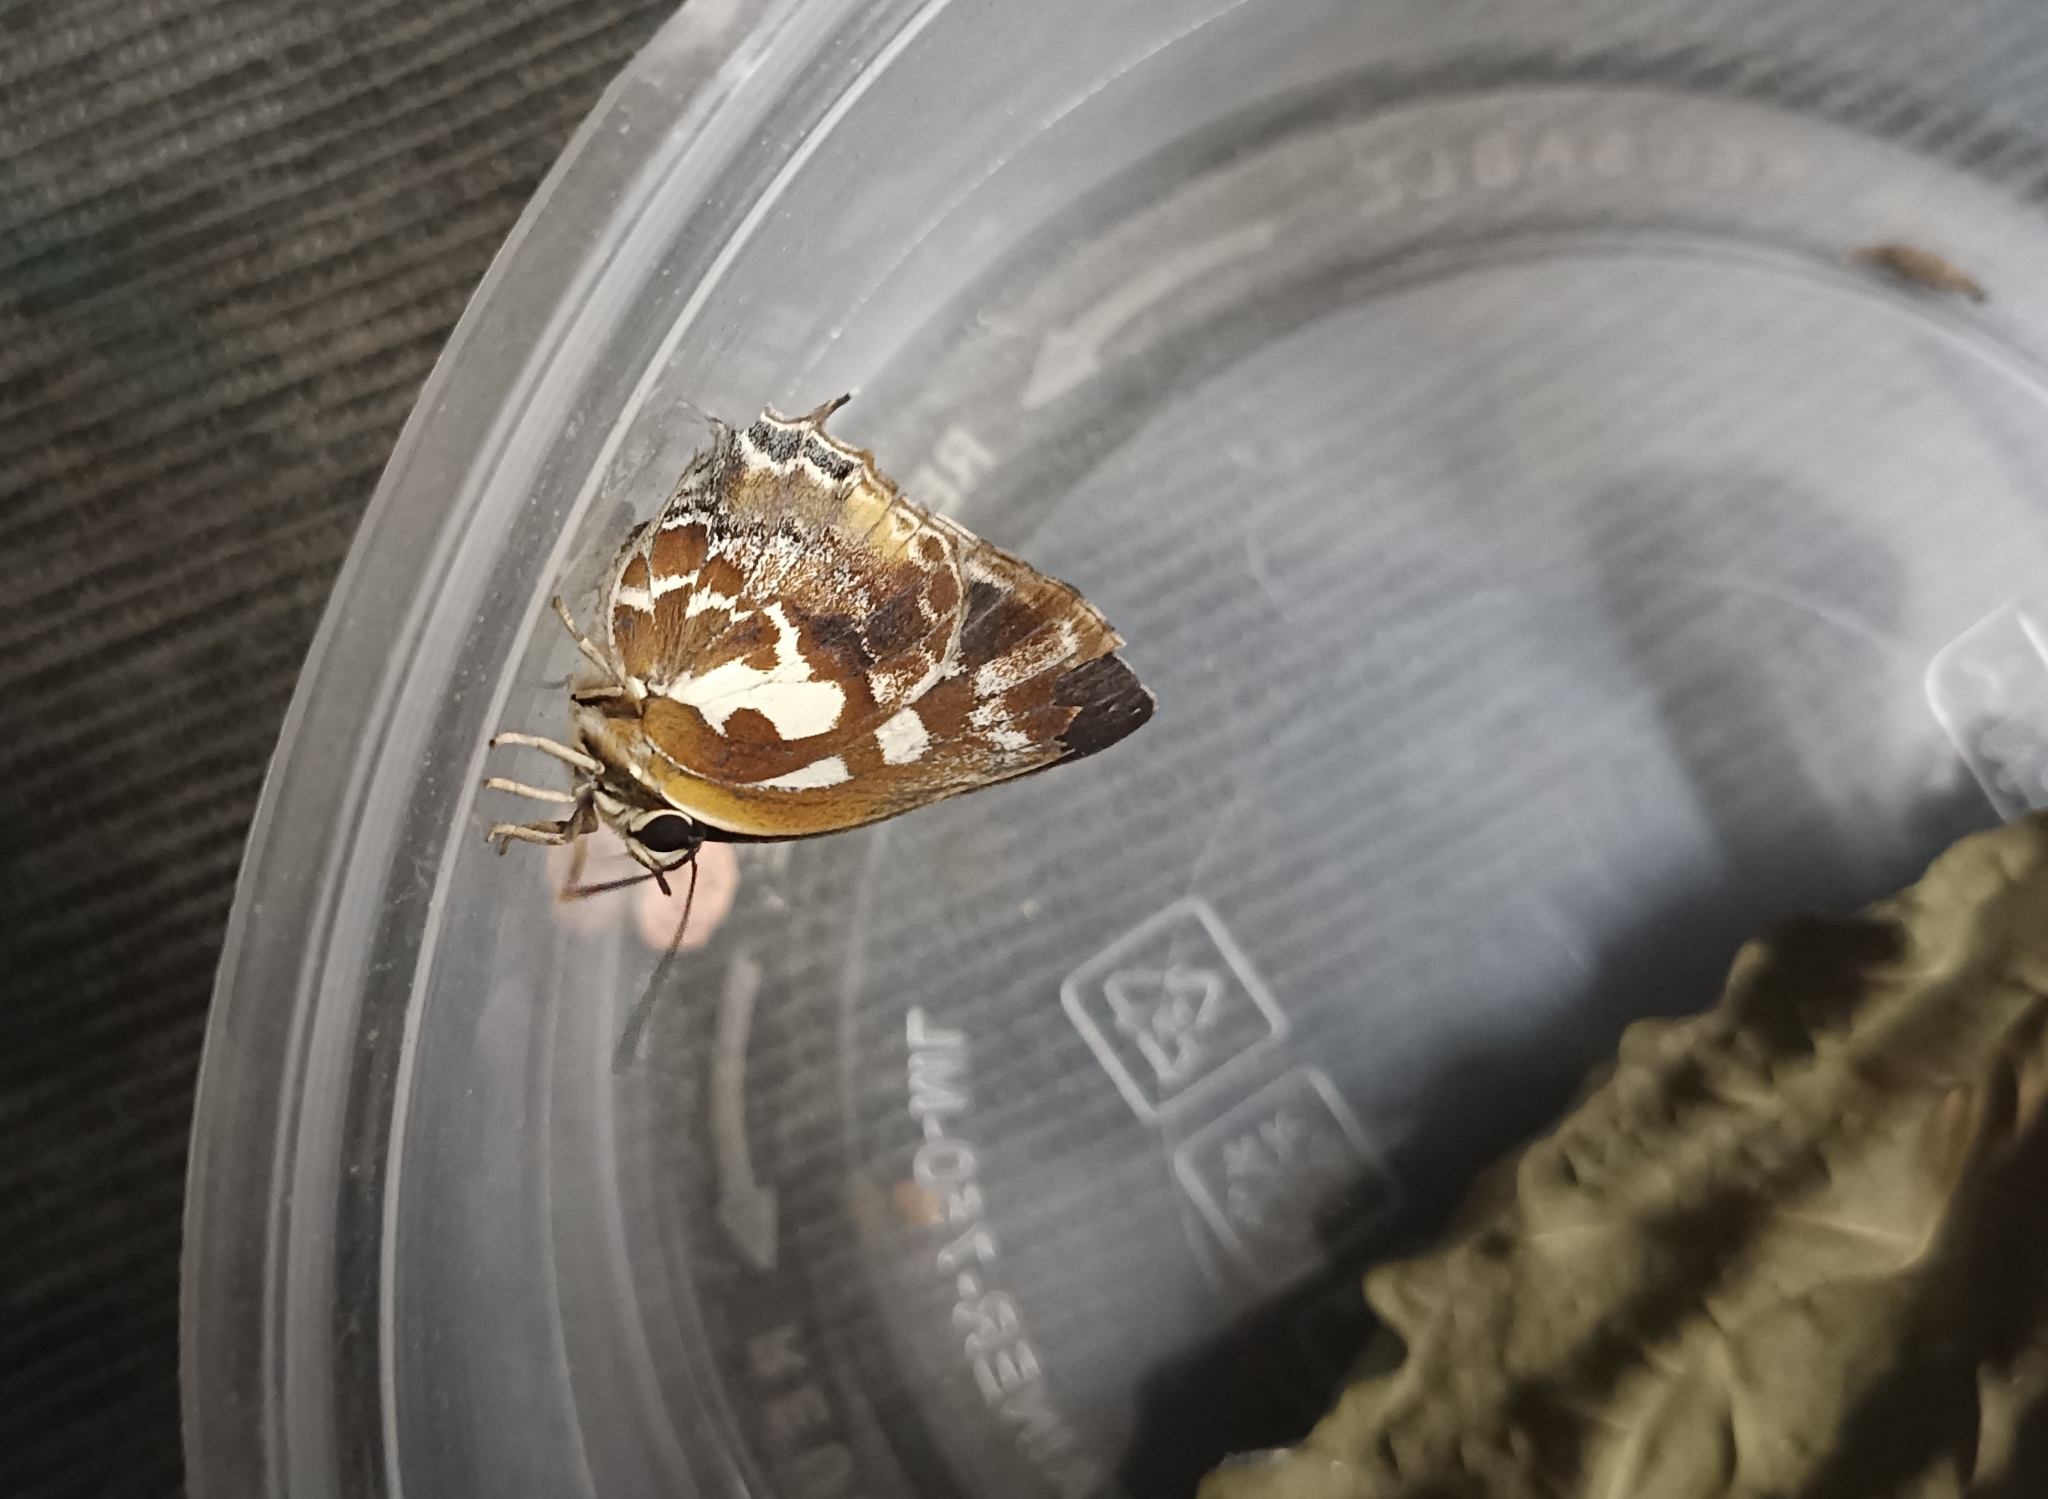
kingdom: Animalia
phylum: Arthropoda
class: Insecta
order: Lepidoptera
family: Lycaenidae
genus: Iraota
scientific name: Iraota timoleon
